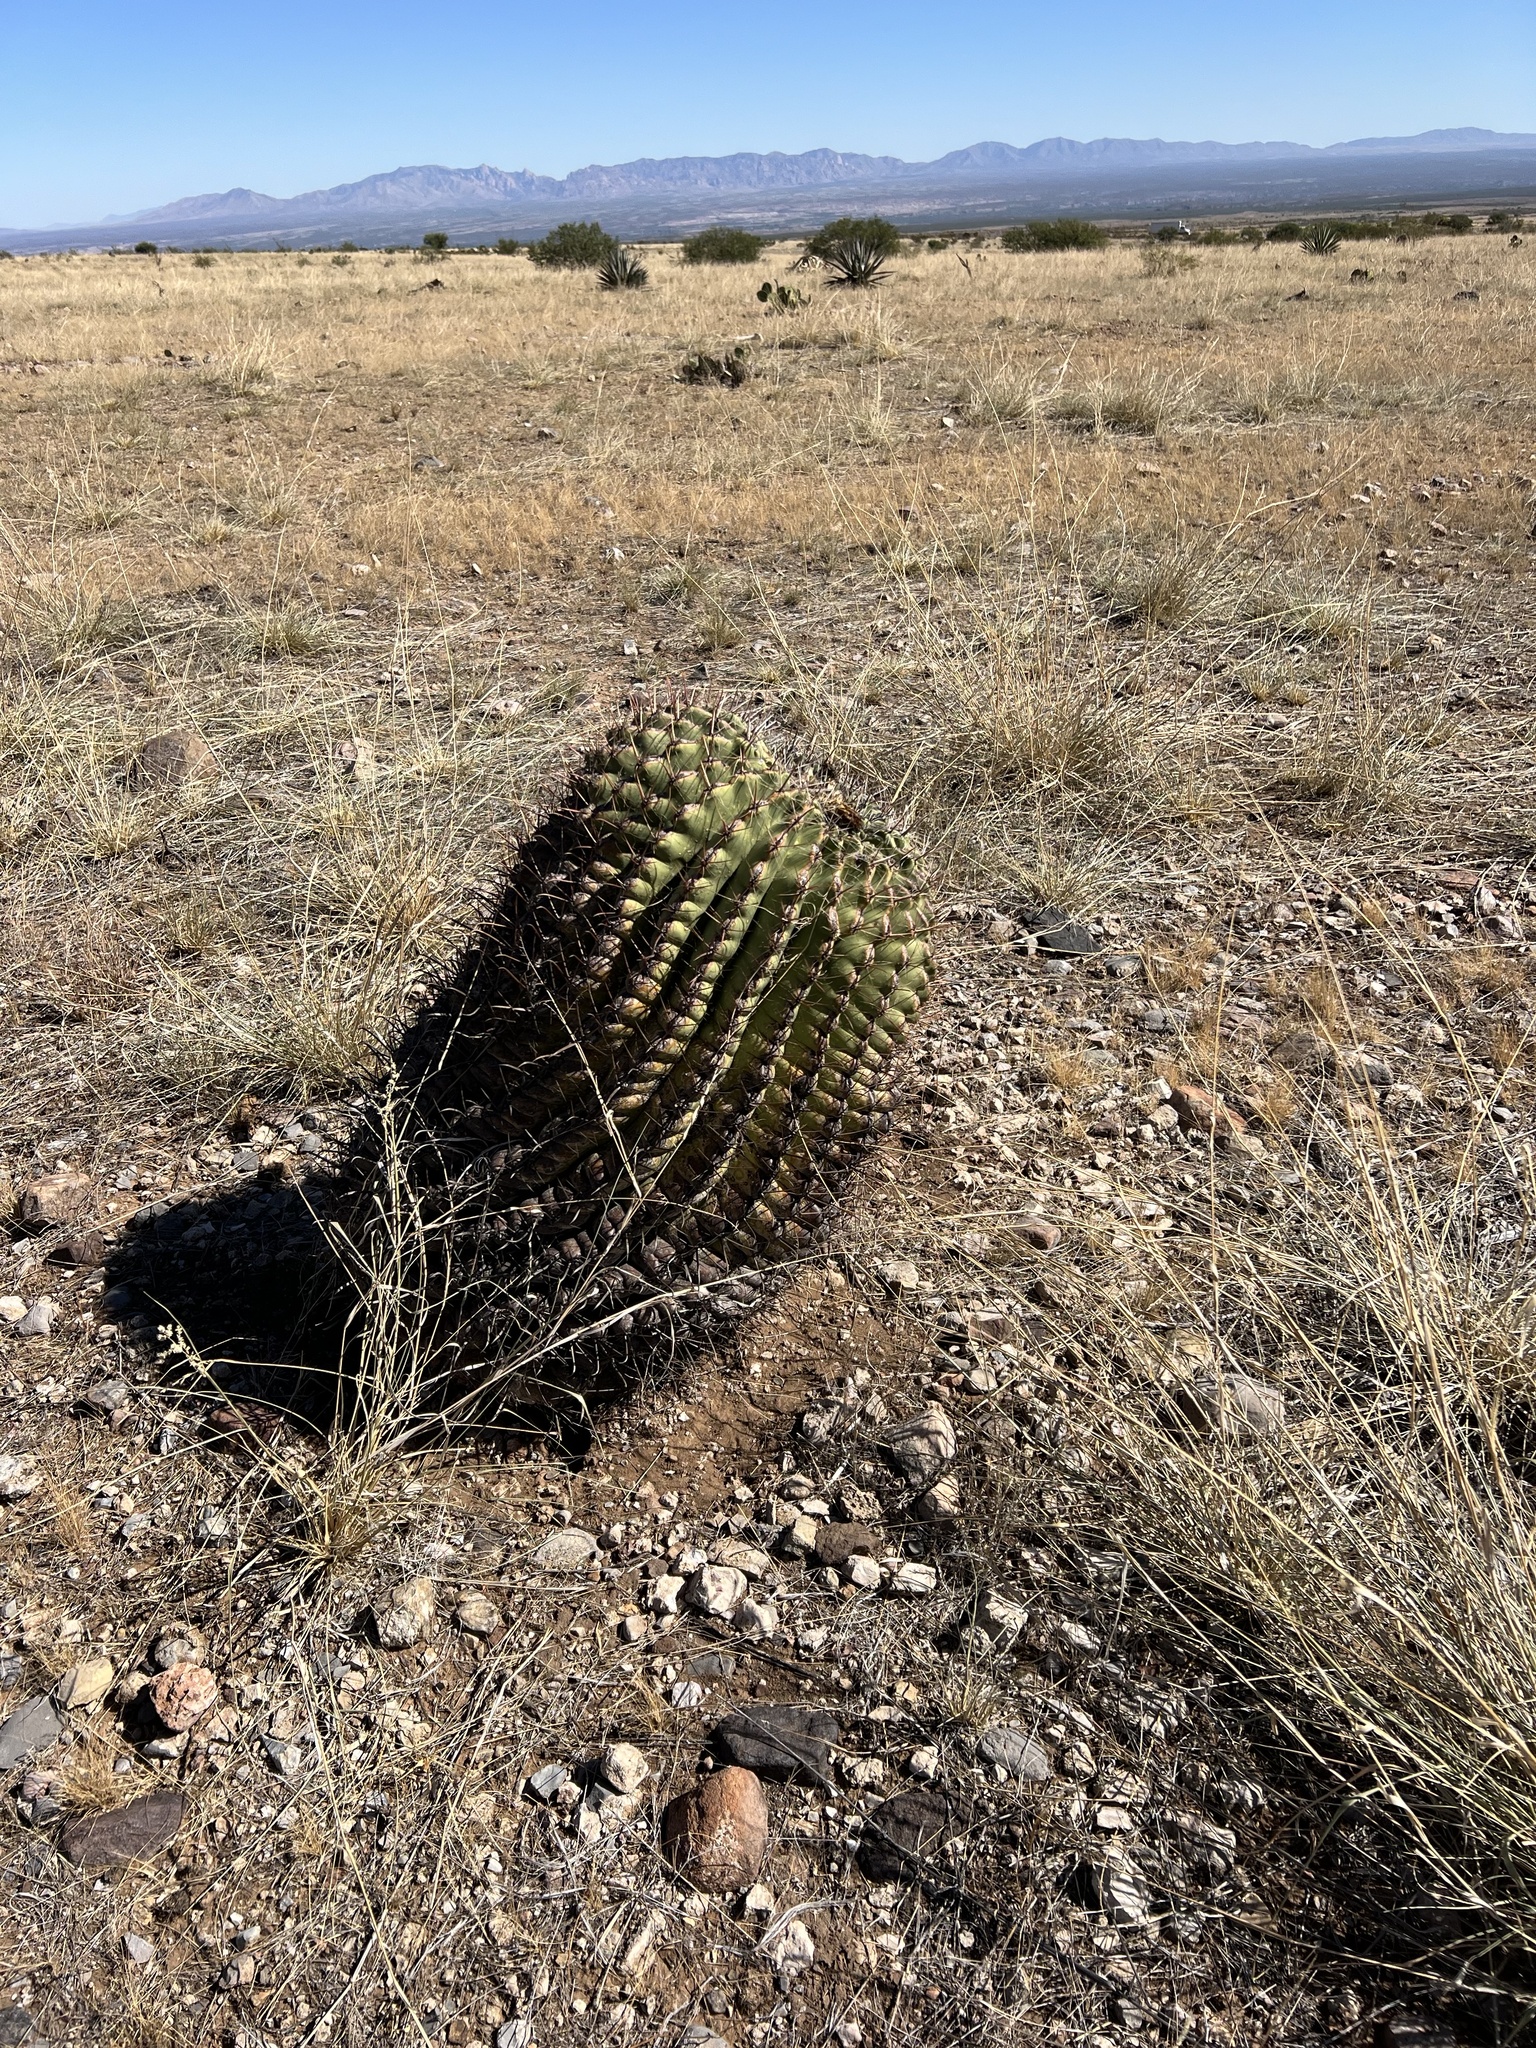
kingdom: Plantae
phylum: Tracheophyta
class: Magnoliopsida
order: Caryophyllales
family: Cactaceae
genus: Ferocactus
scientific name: Ferocactus wislizeni
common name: Candy barrel cactus
